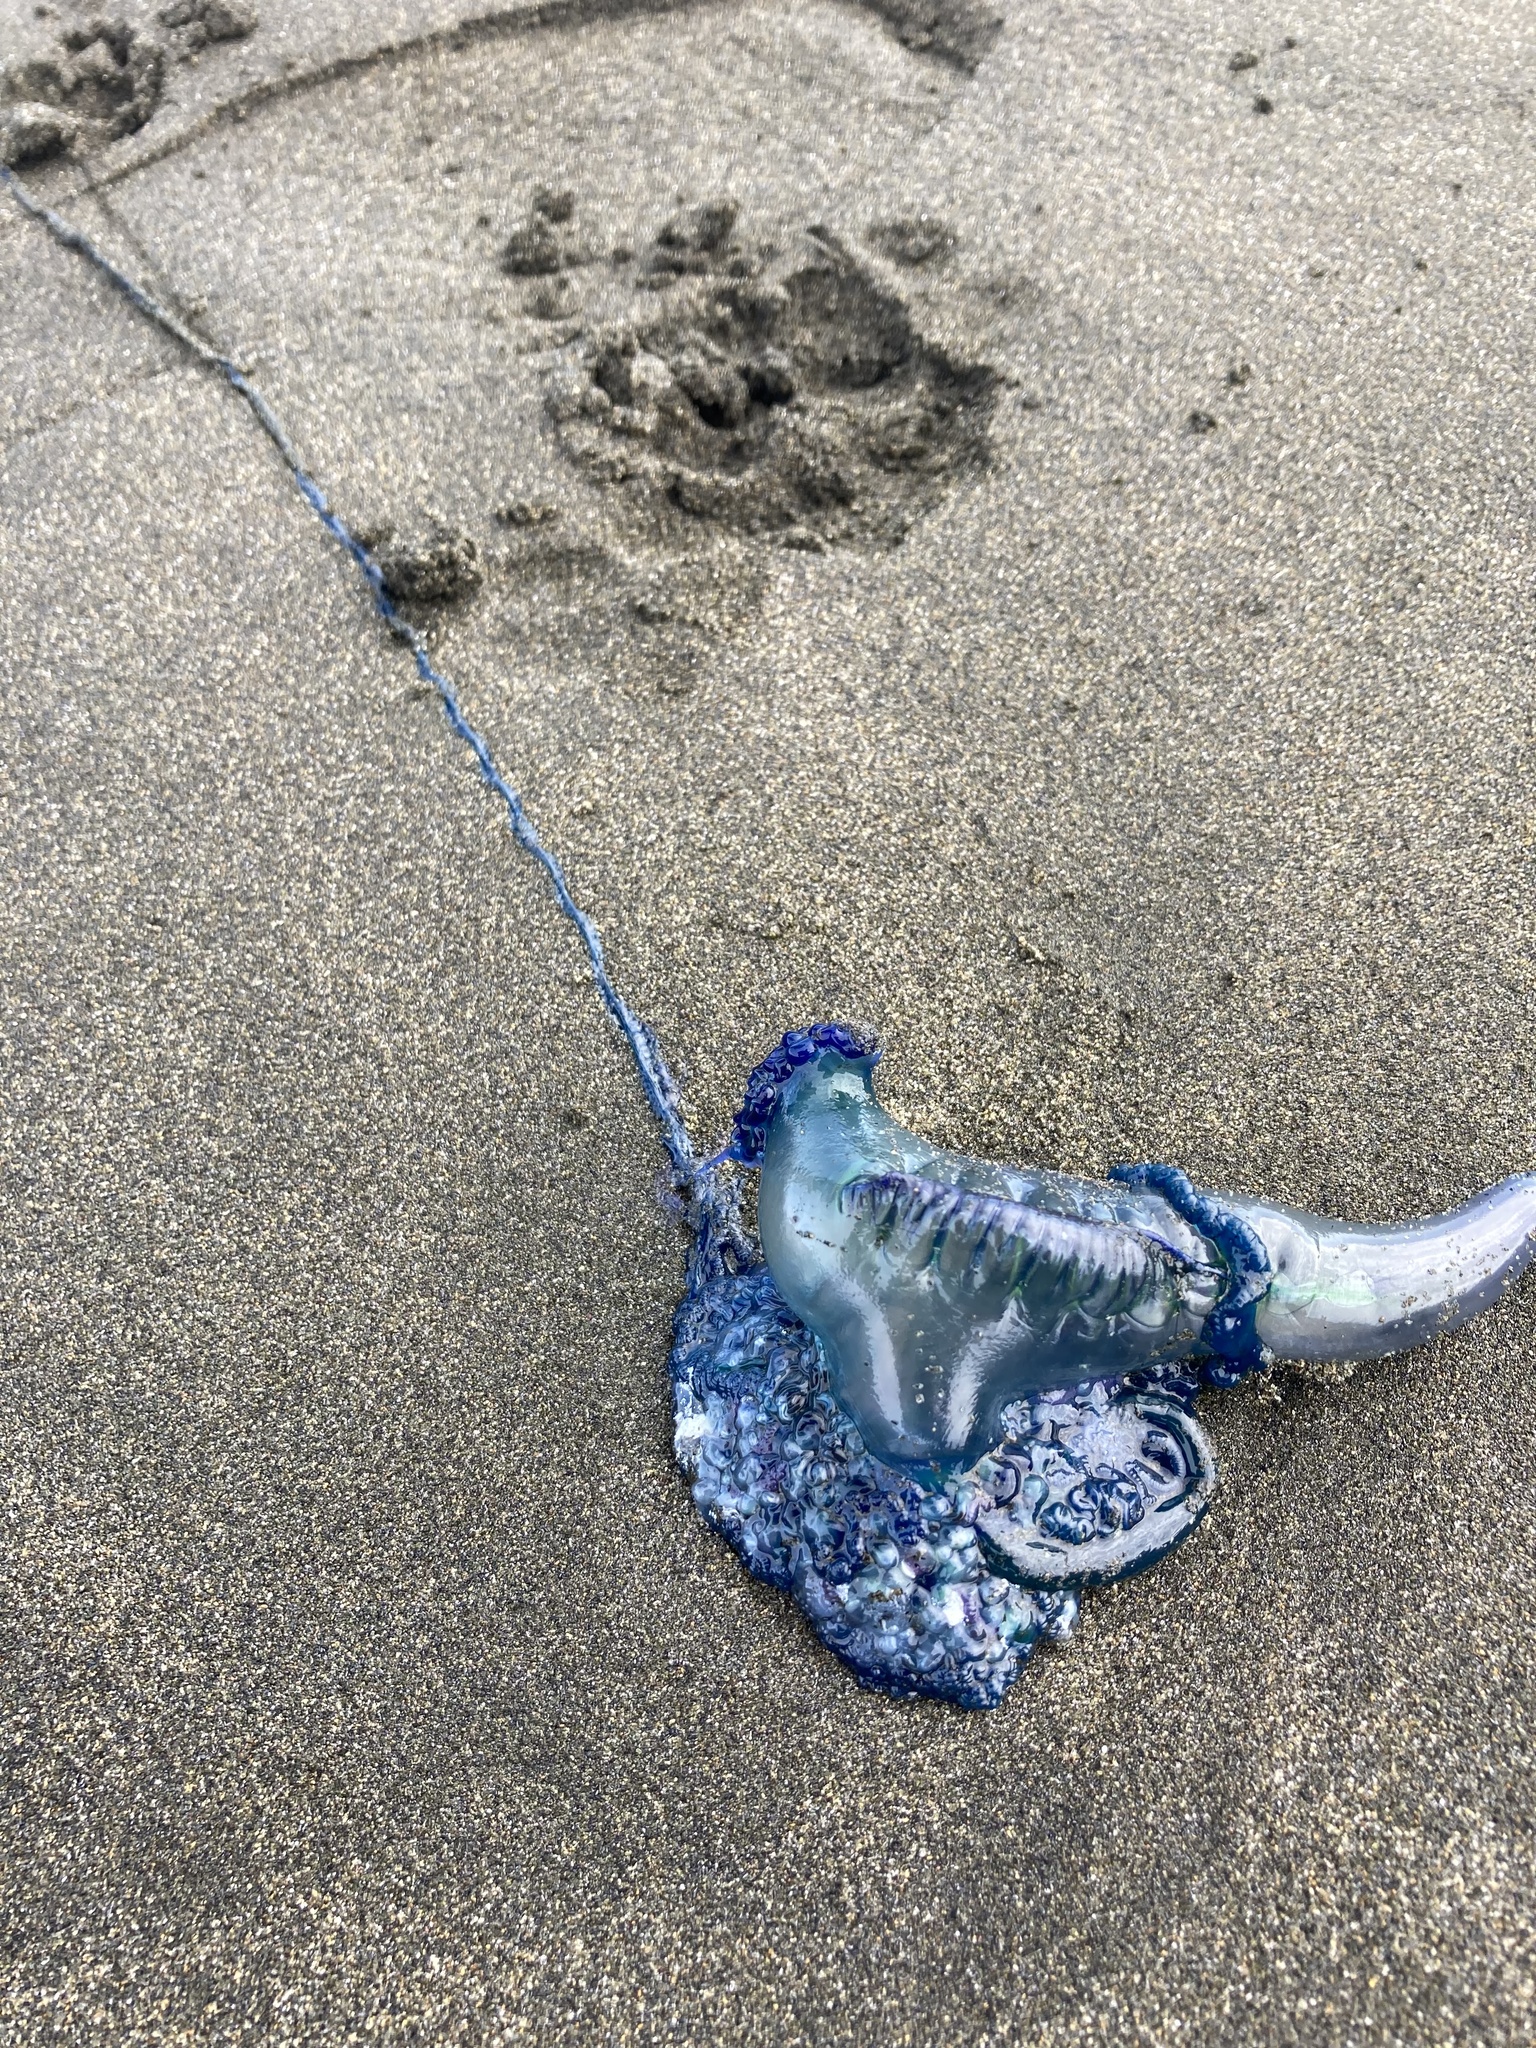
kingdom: Animalia
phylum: Cnidaria
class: Hydrozoa
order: Siphonophorae
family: Physaliidae
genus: Physalia
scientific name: Physalia physalis
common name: Portuguese man-of-war
